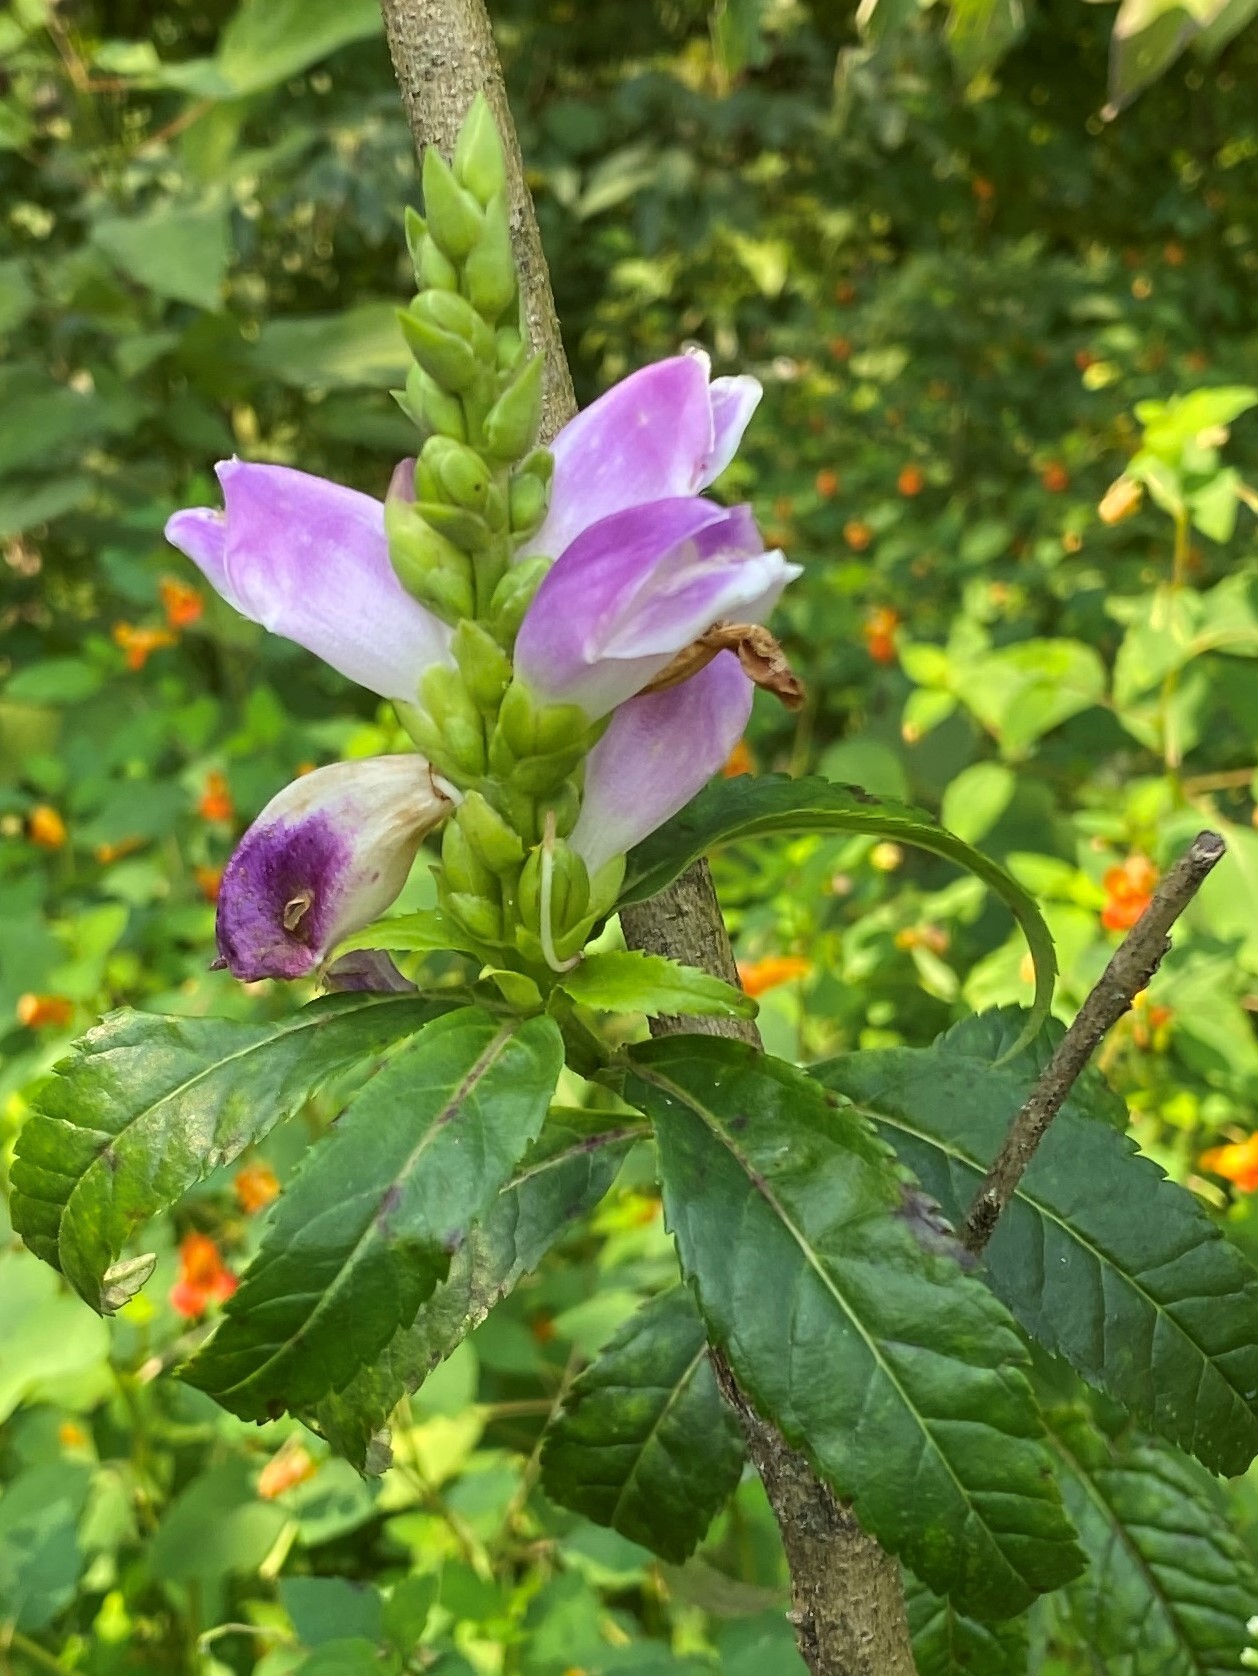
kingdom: Plantae
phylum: Tracheophyta
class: Magnoliopsida
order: Lamiales
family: Plantaginaceae
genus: Chelone
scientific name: Chelone lyonii
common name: Pink turtlehead
